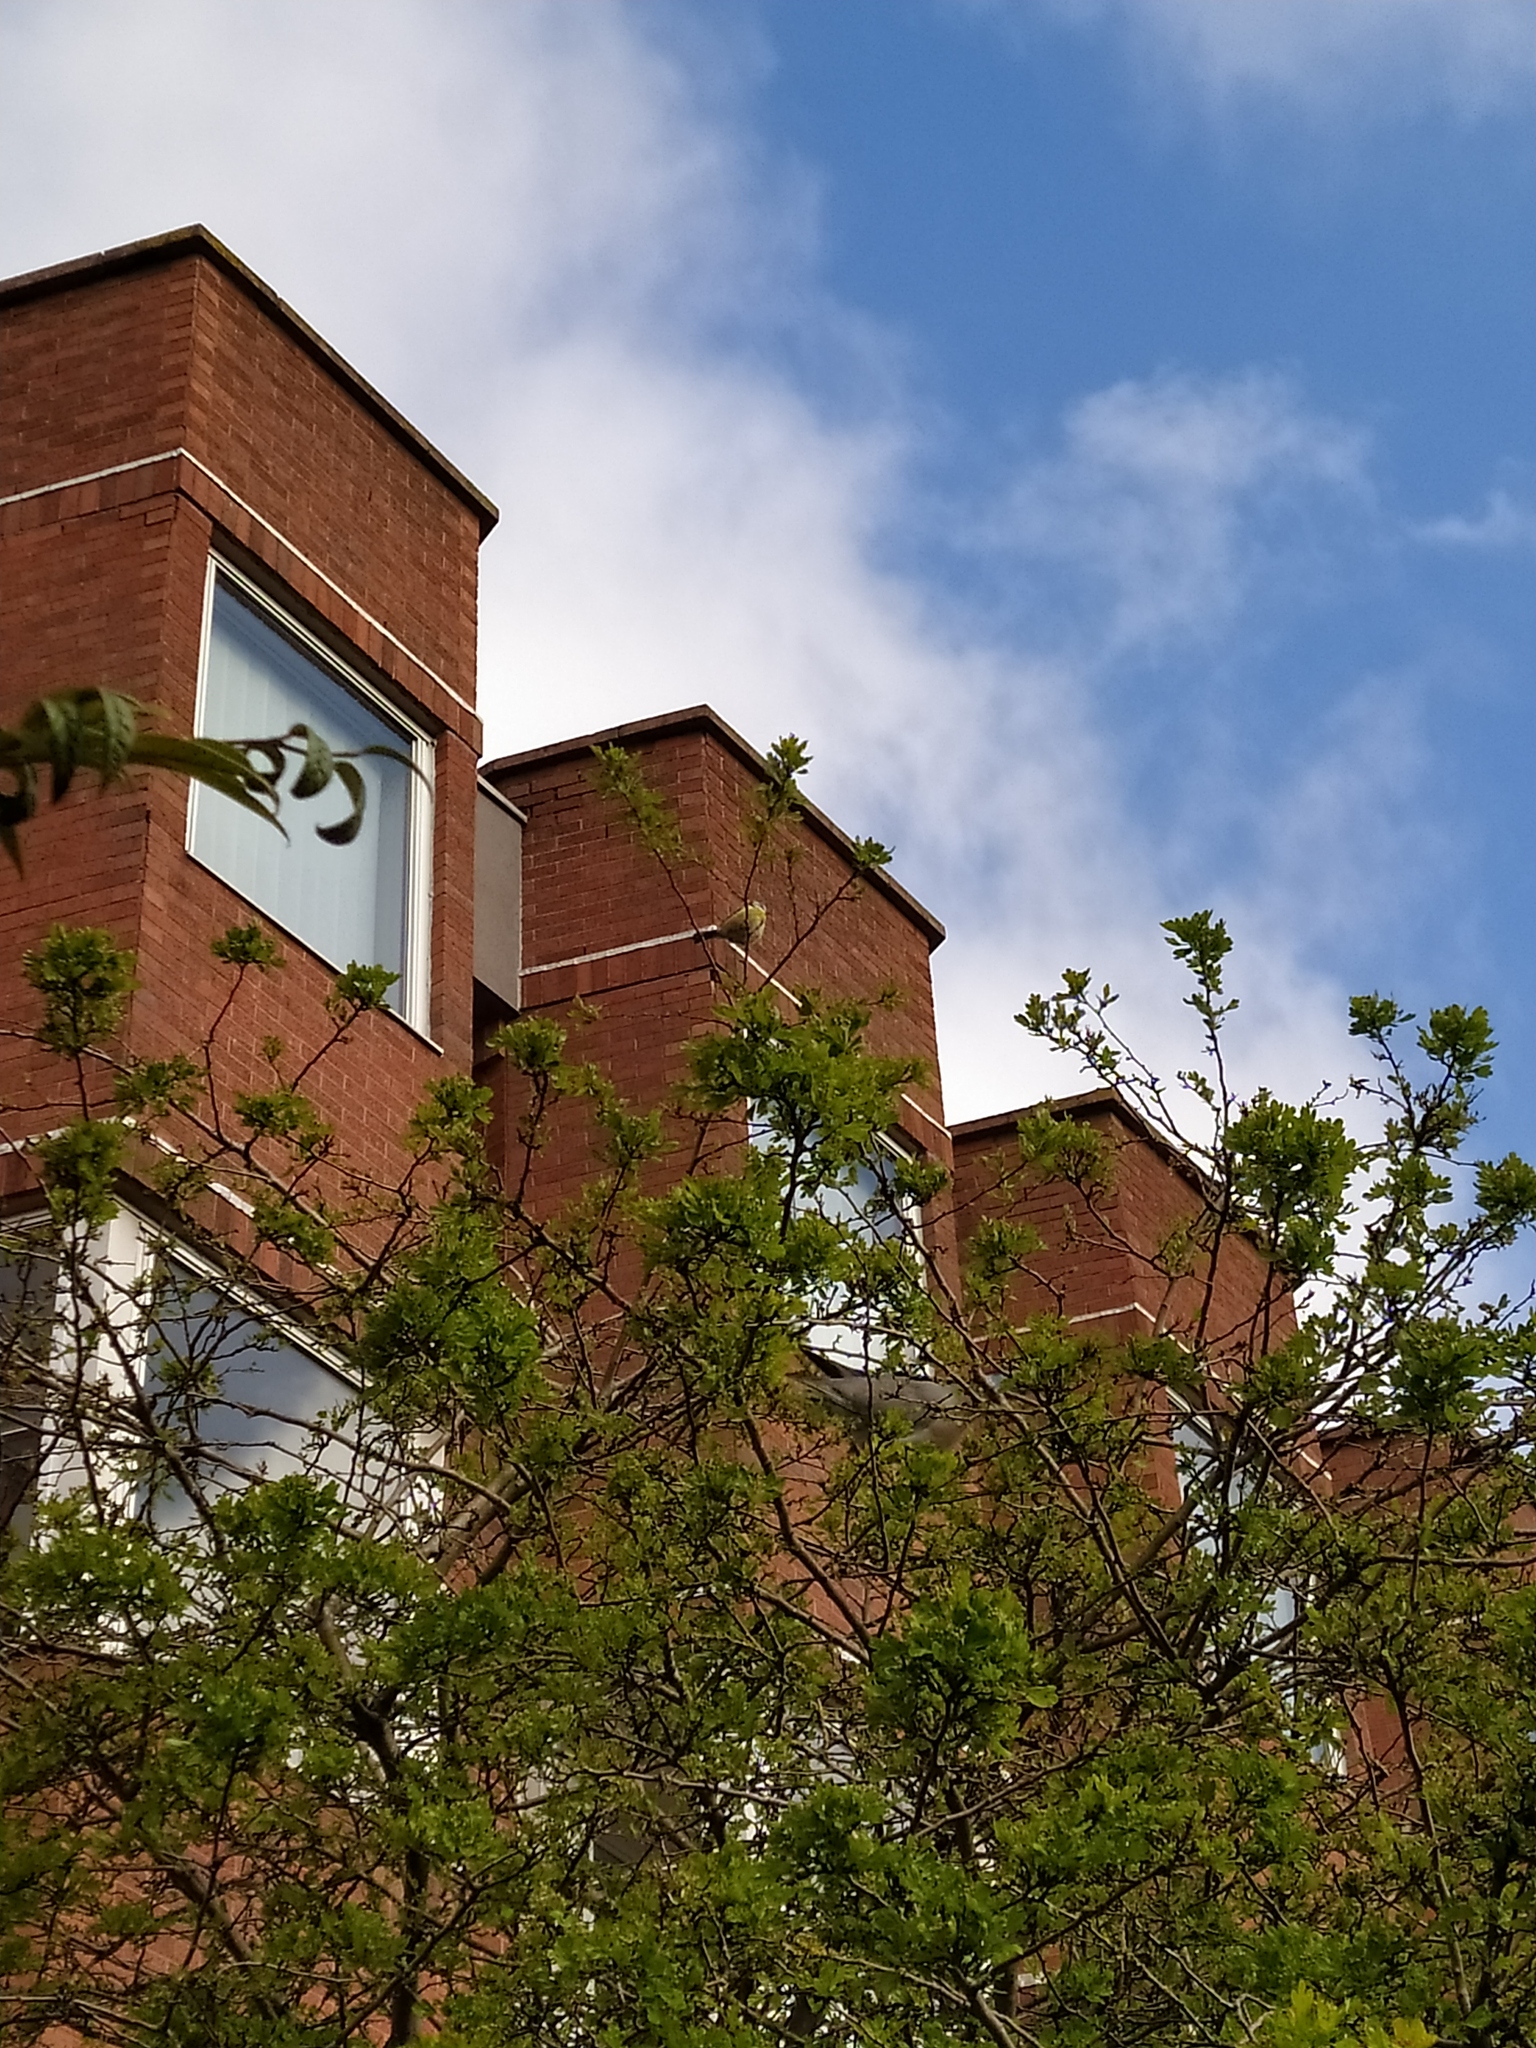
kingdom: Animalia
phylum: Chordata
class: Aves
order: Passeriformes
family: Paridae
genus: Cyanistes
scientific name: Cyanistes caeruleus
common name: Eurasian blue tit
